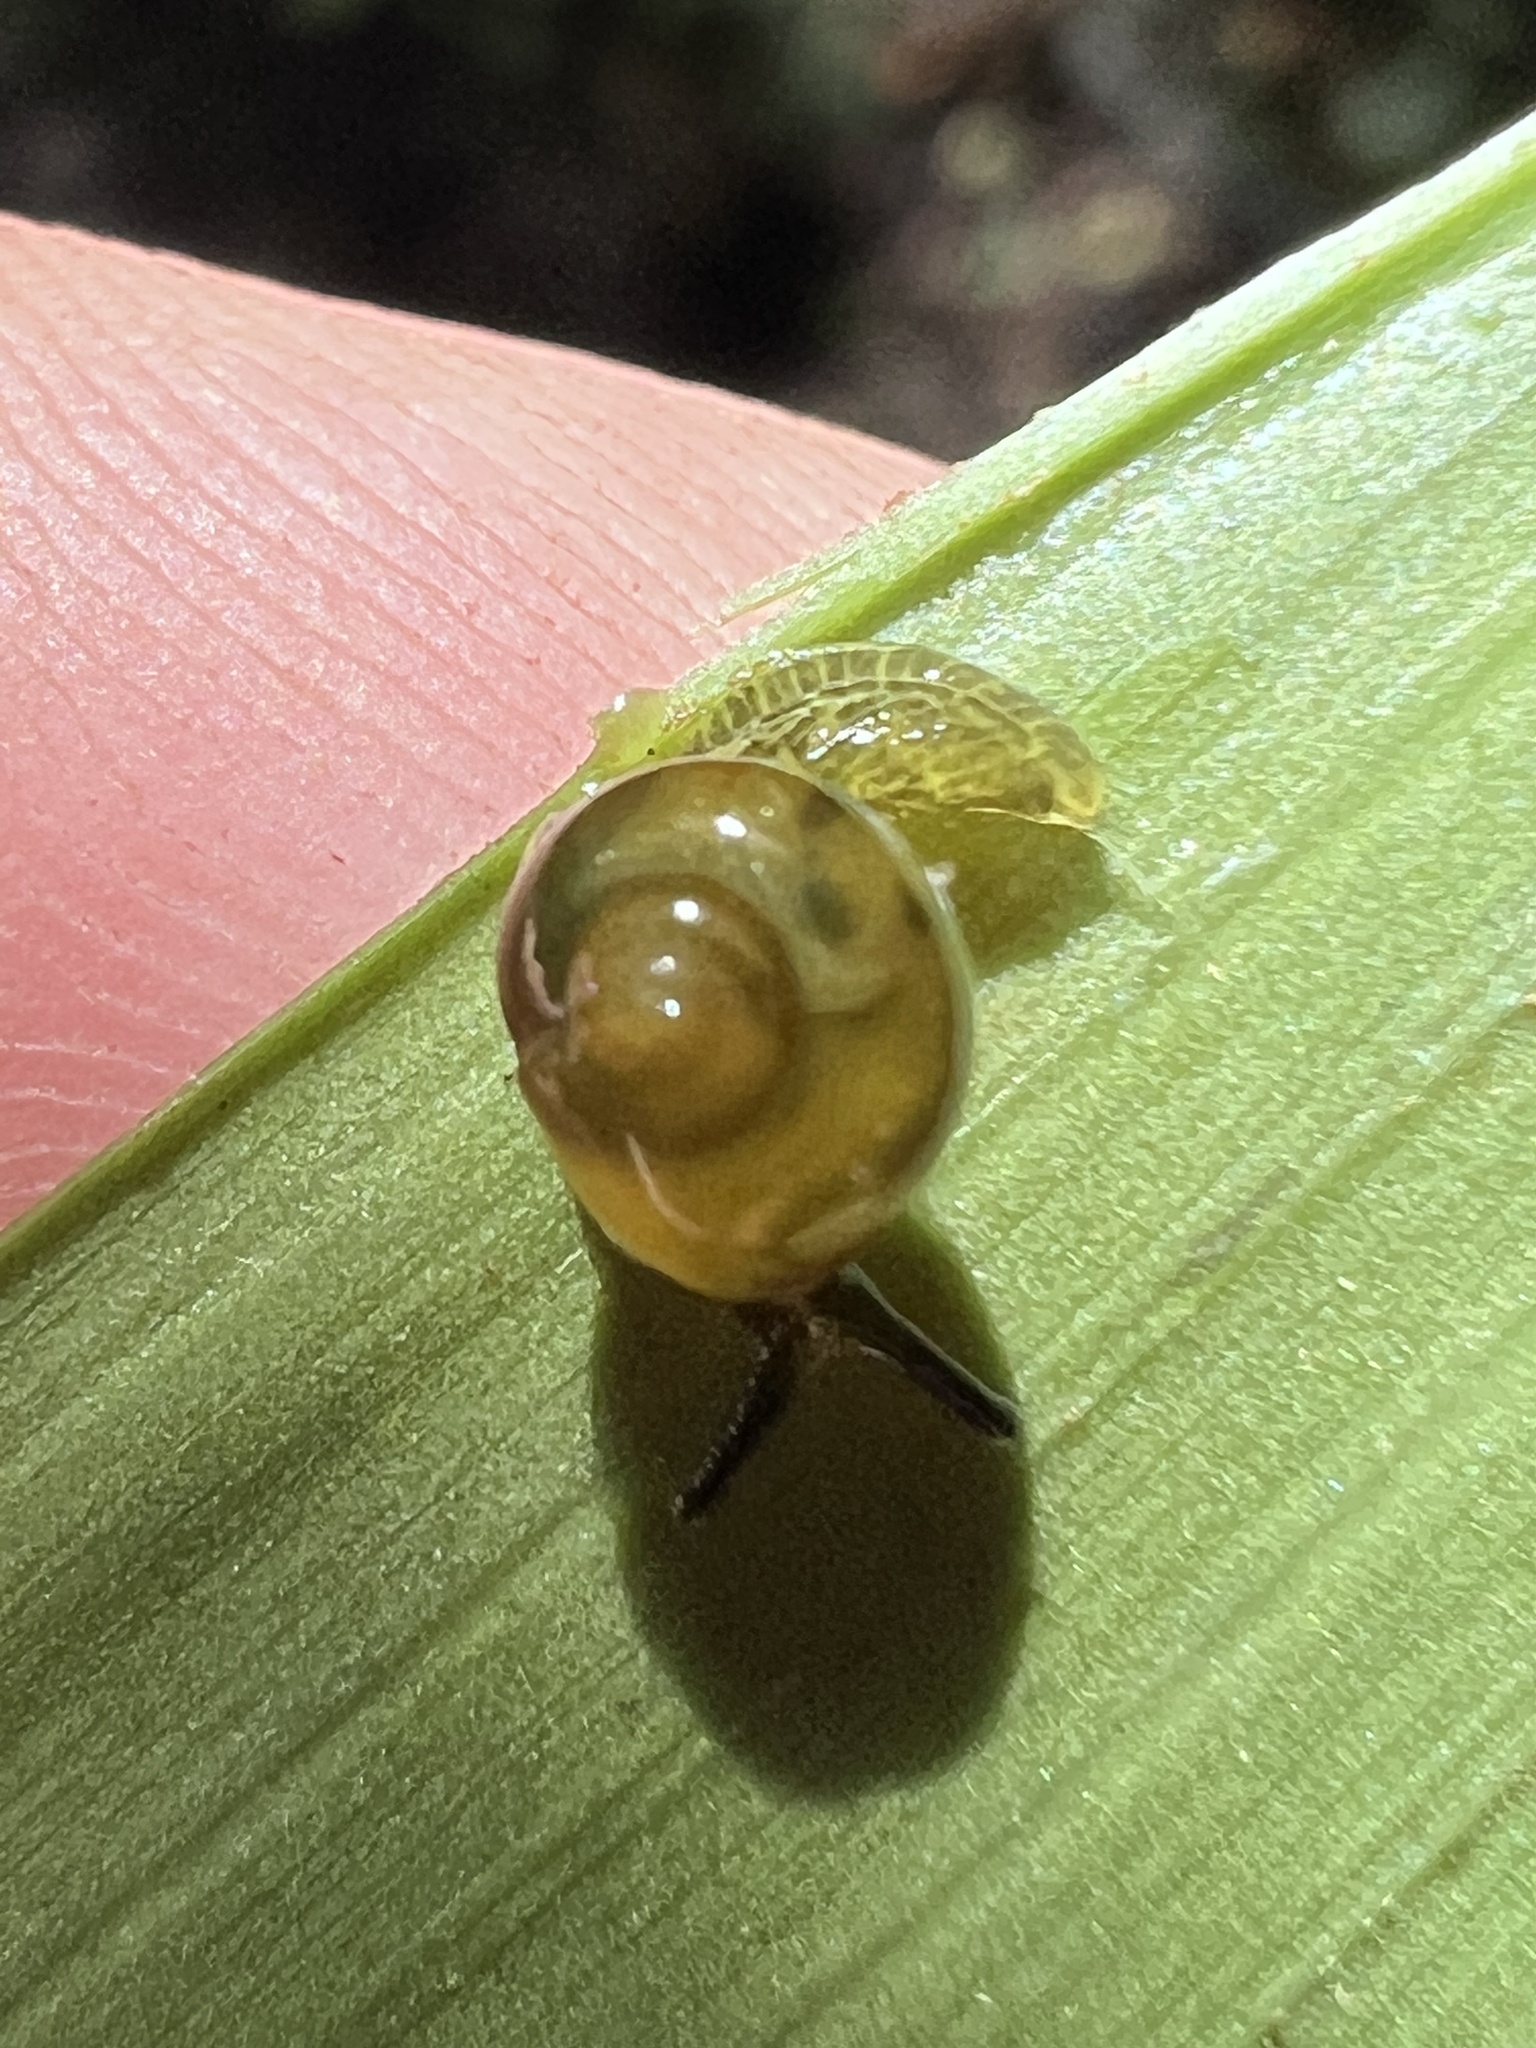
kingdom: Animalia
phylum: Mollusca
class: Gastropoda
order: Stylommatophora
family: Euconulidae
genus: Tikoconus
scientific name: Tikoconus costaricanus
